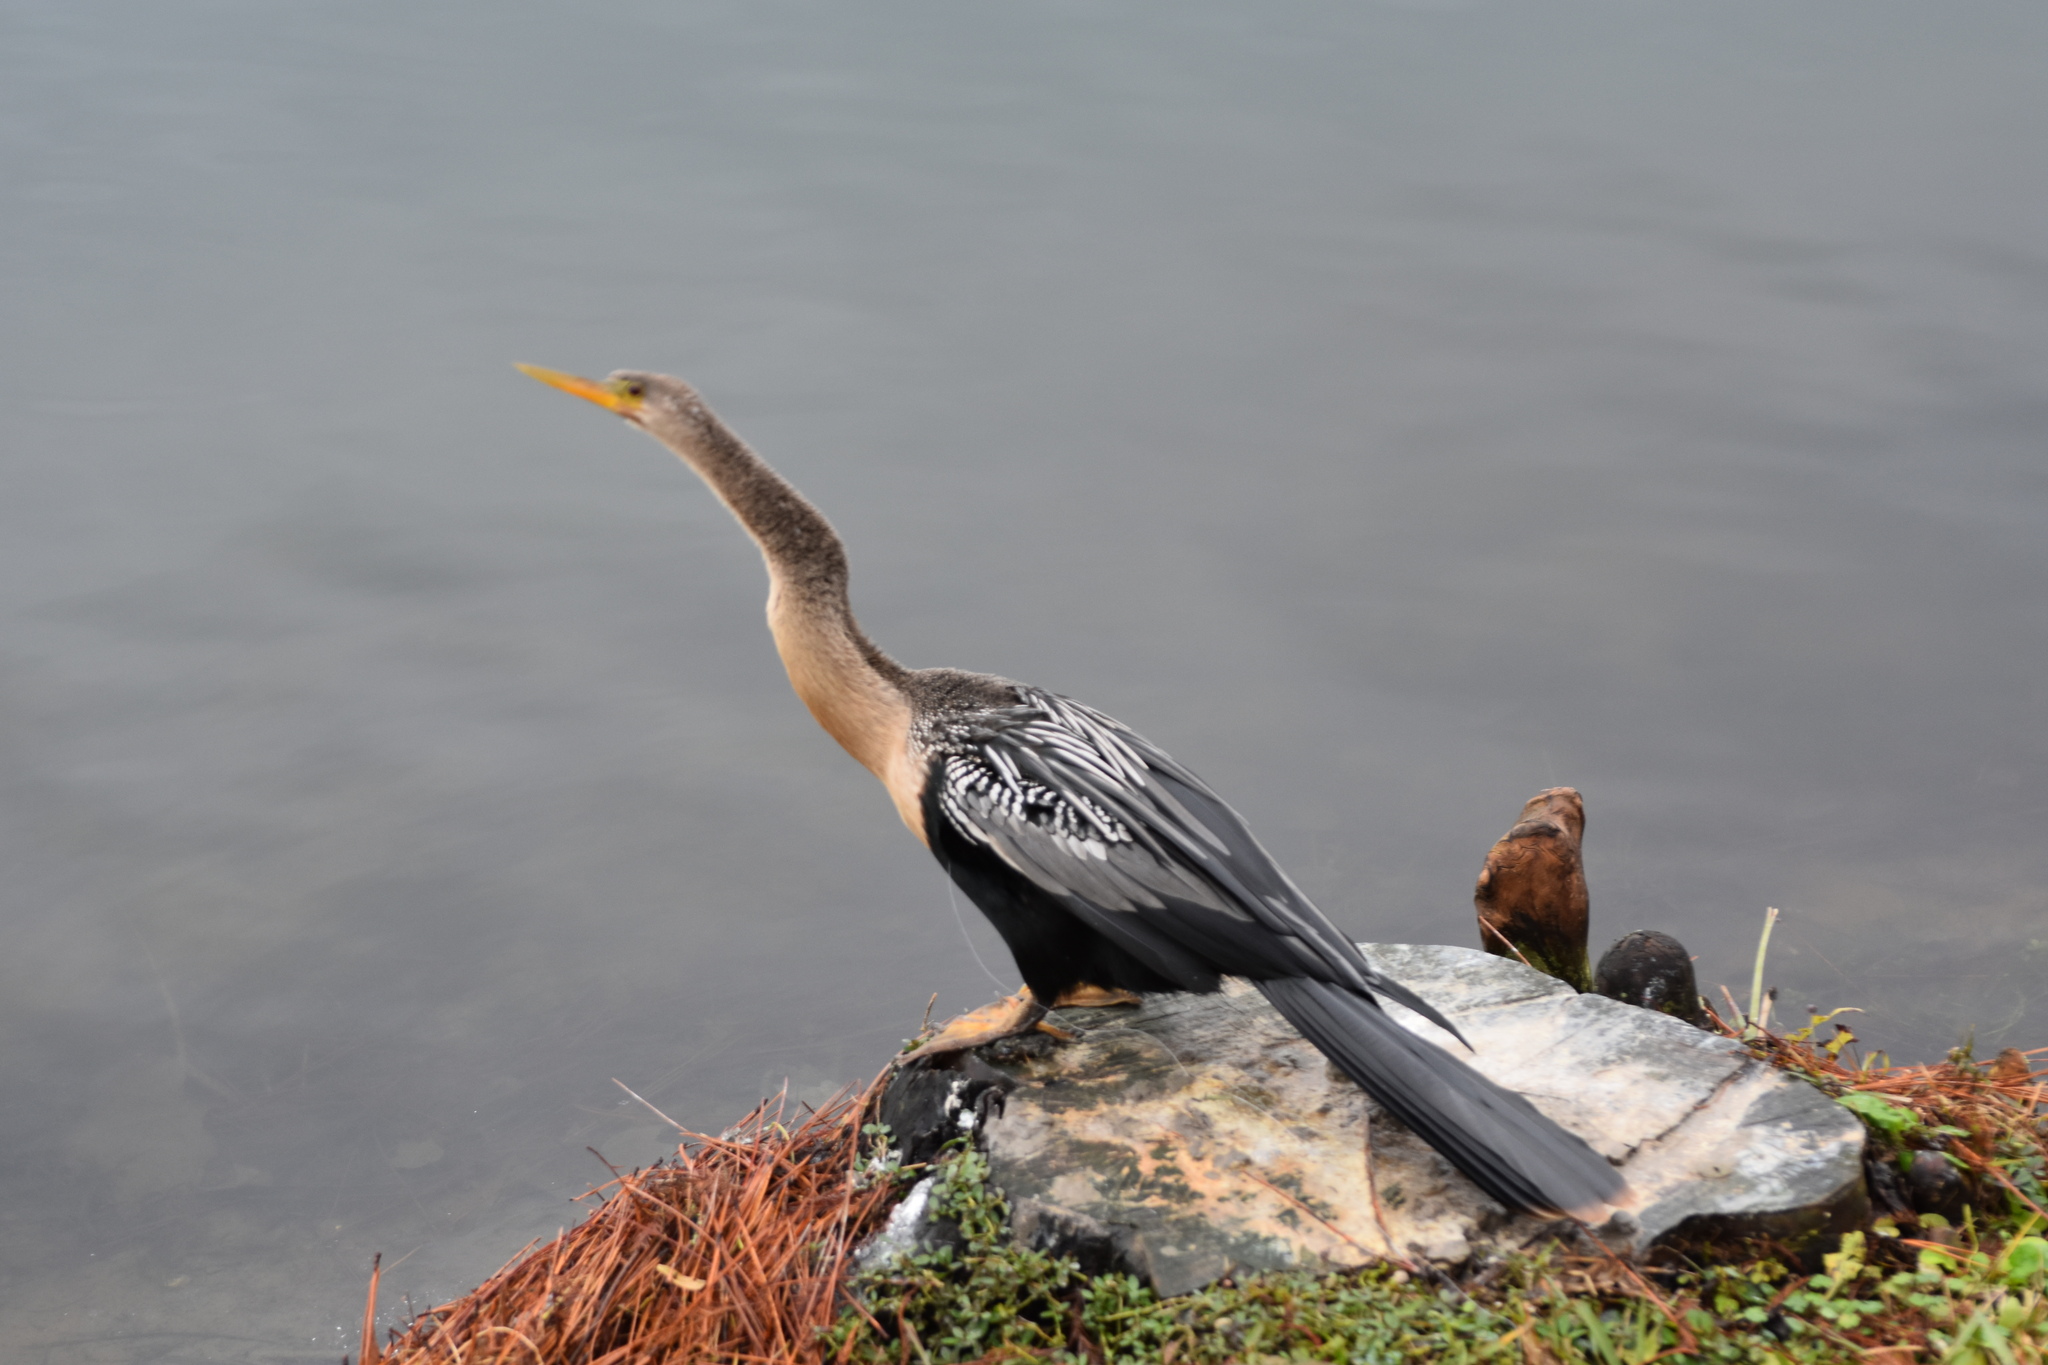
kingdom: Animalia
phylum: Chordata
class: Aves
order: Suliformes
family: Anhingidae
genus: Anhinga
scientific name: Anhinga anhinga
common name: Anhinga
